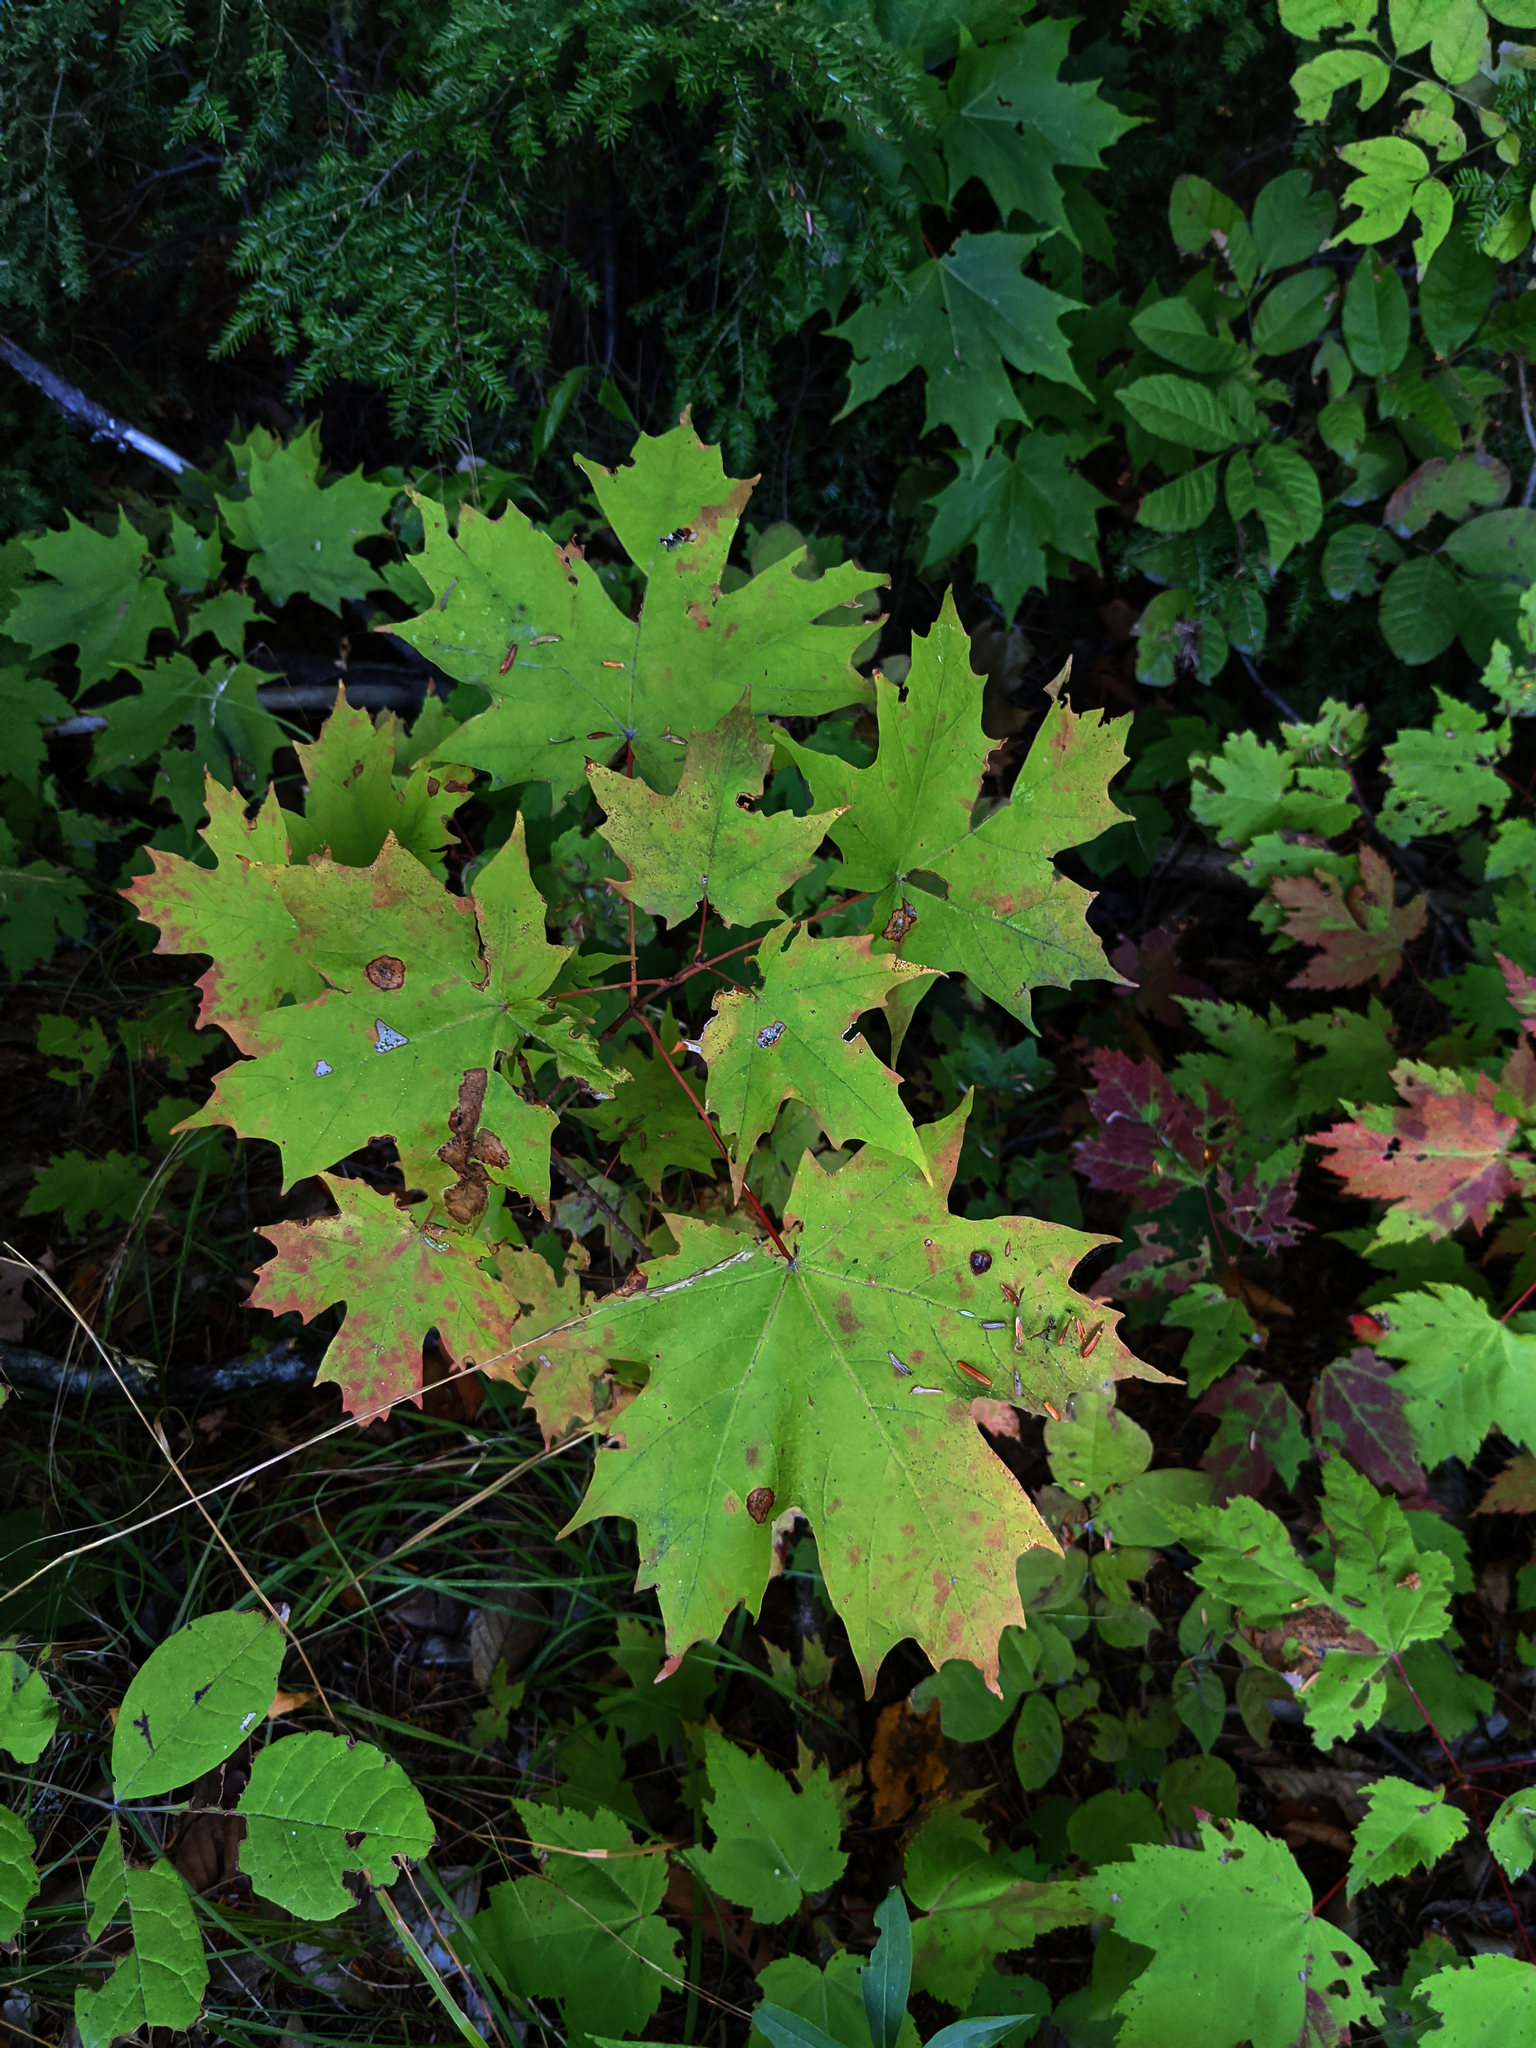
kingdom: Plantae
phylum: Tracheophyta
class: Magnoliopsida
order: Sapindales
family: Sapindaceae
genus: Acer
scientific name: Acer saccharum
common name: Sugar maple
